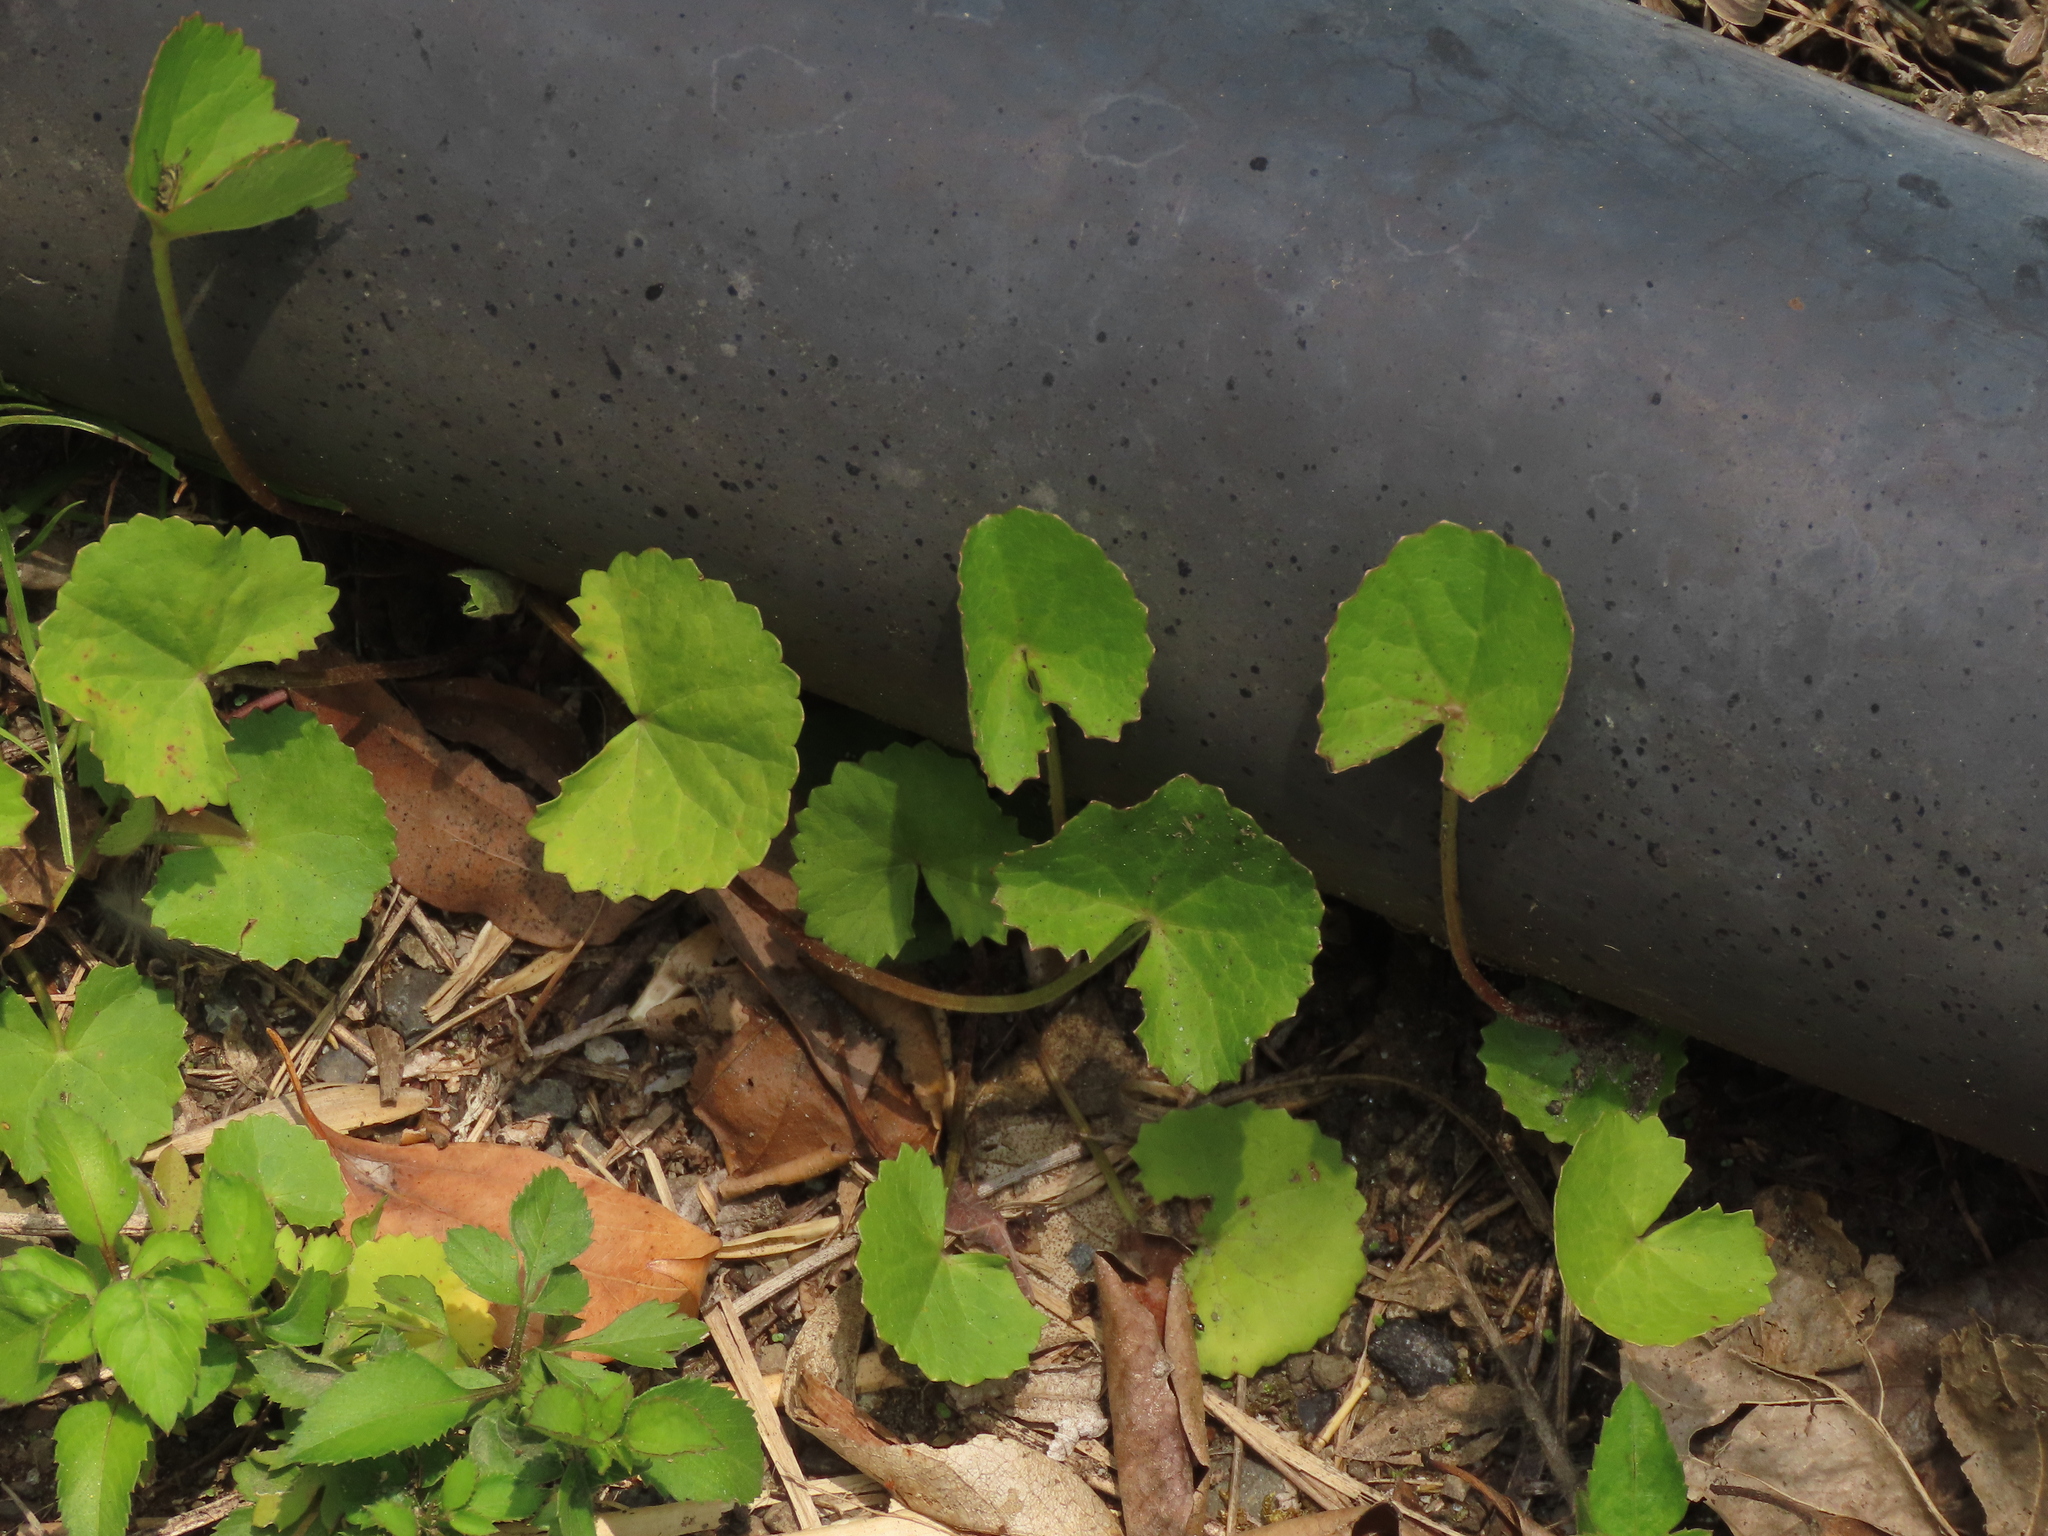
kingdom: Plantae
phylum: Tracheophyta
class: Magnoliopsida
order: Apiales
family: Apiaceae
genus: Centella
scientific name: Centella asiatica
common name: Spadeleaf
